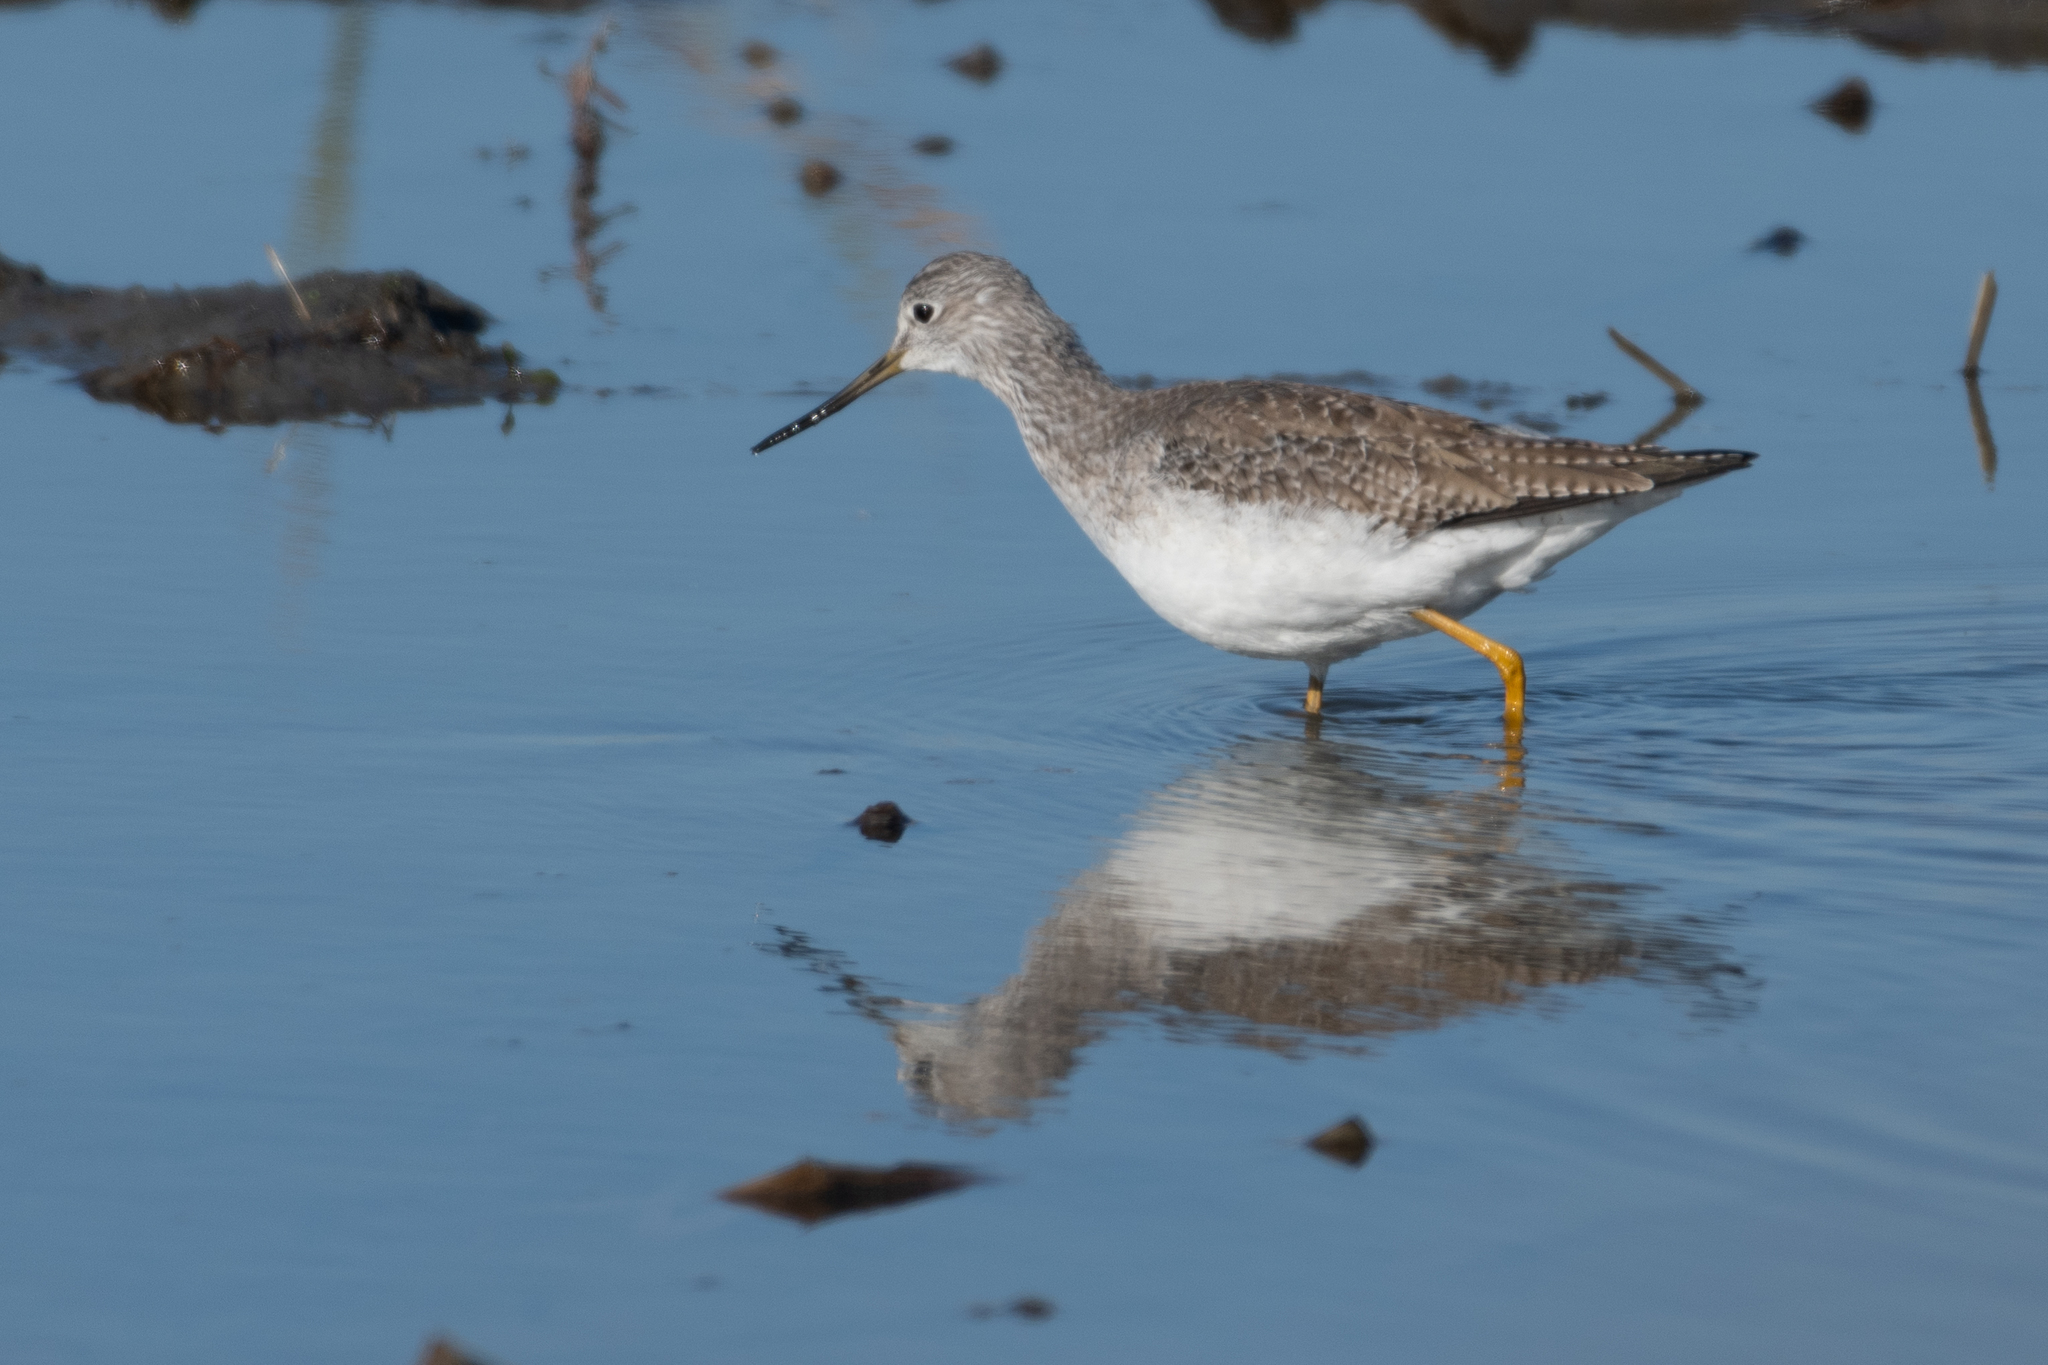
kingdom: Animalia
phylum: Chordata
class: Aves
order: Charadriiformes
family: Scolopacidae
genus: Tringa
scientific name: Tringa melanoleuca
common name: Greater yellowlegs
